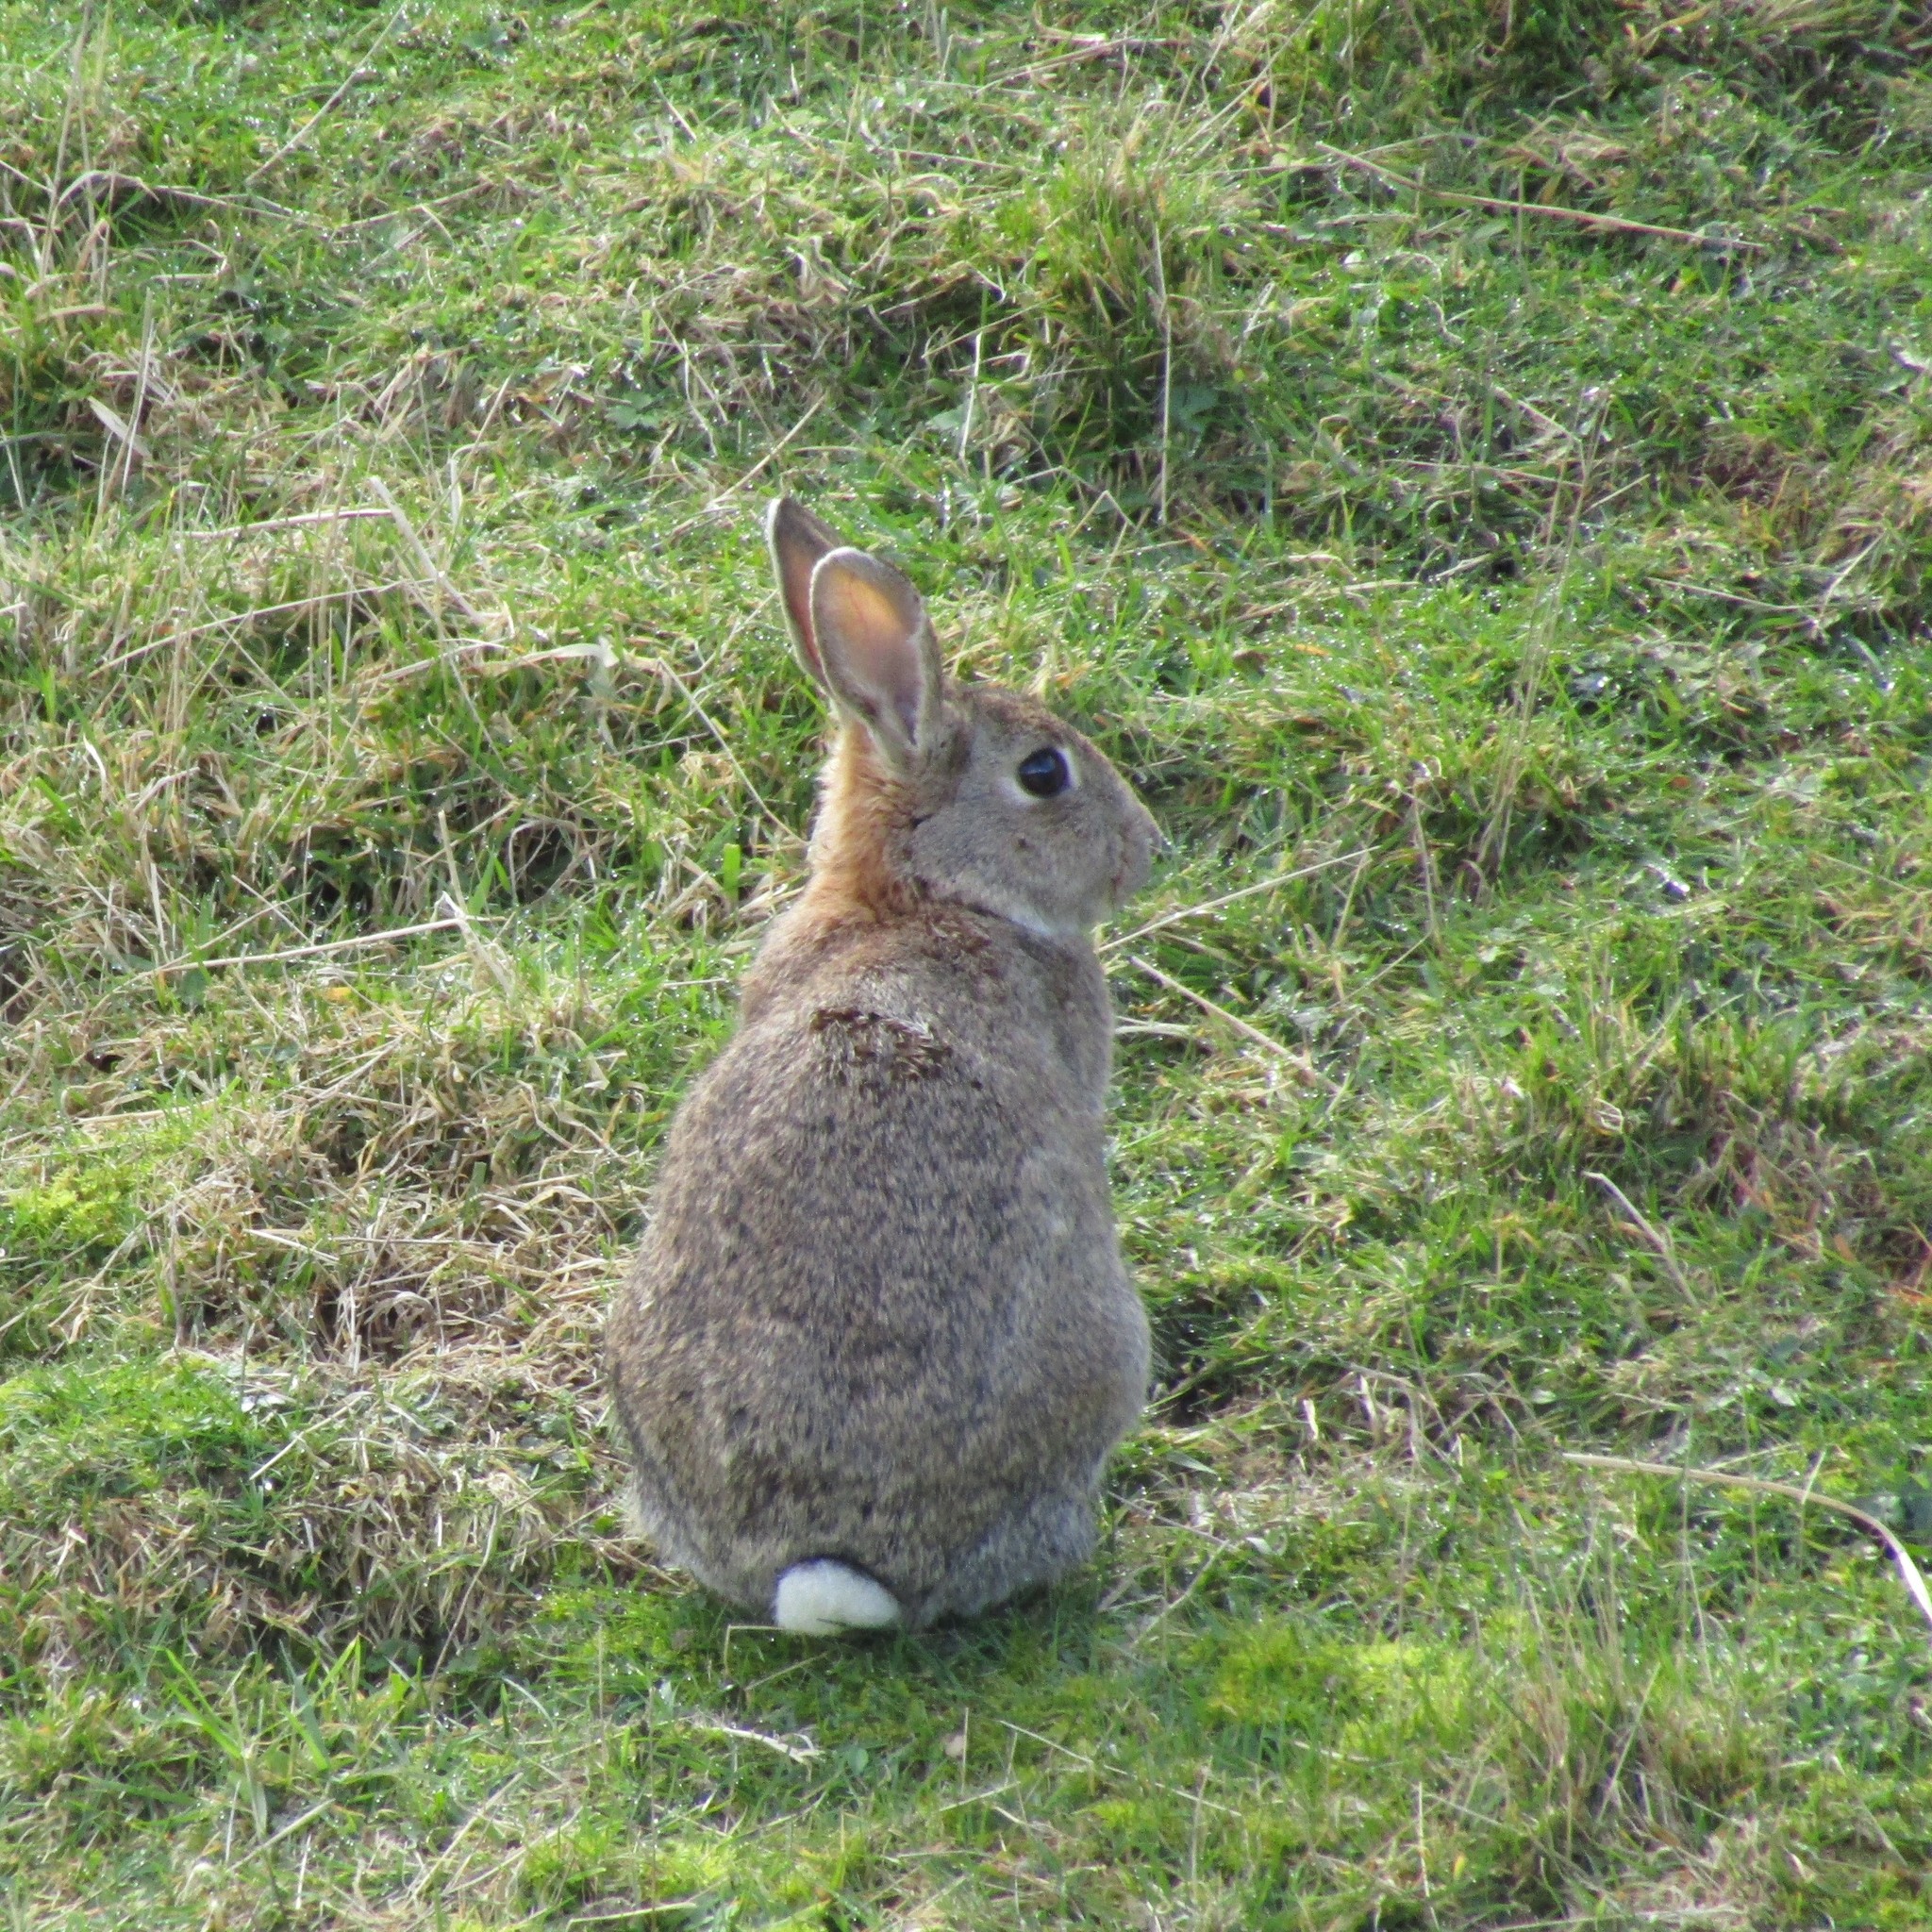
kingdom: Animalia
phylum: Chordata
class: Mammalia
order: Lagomorpha
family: Leporidae
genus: Oryctolagus
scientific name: Oryctolagus cuniculus
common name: European rabbit
